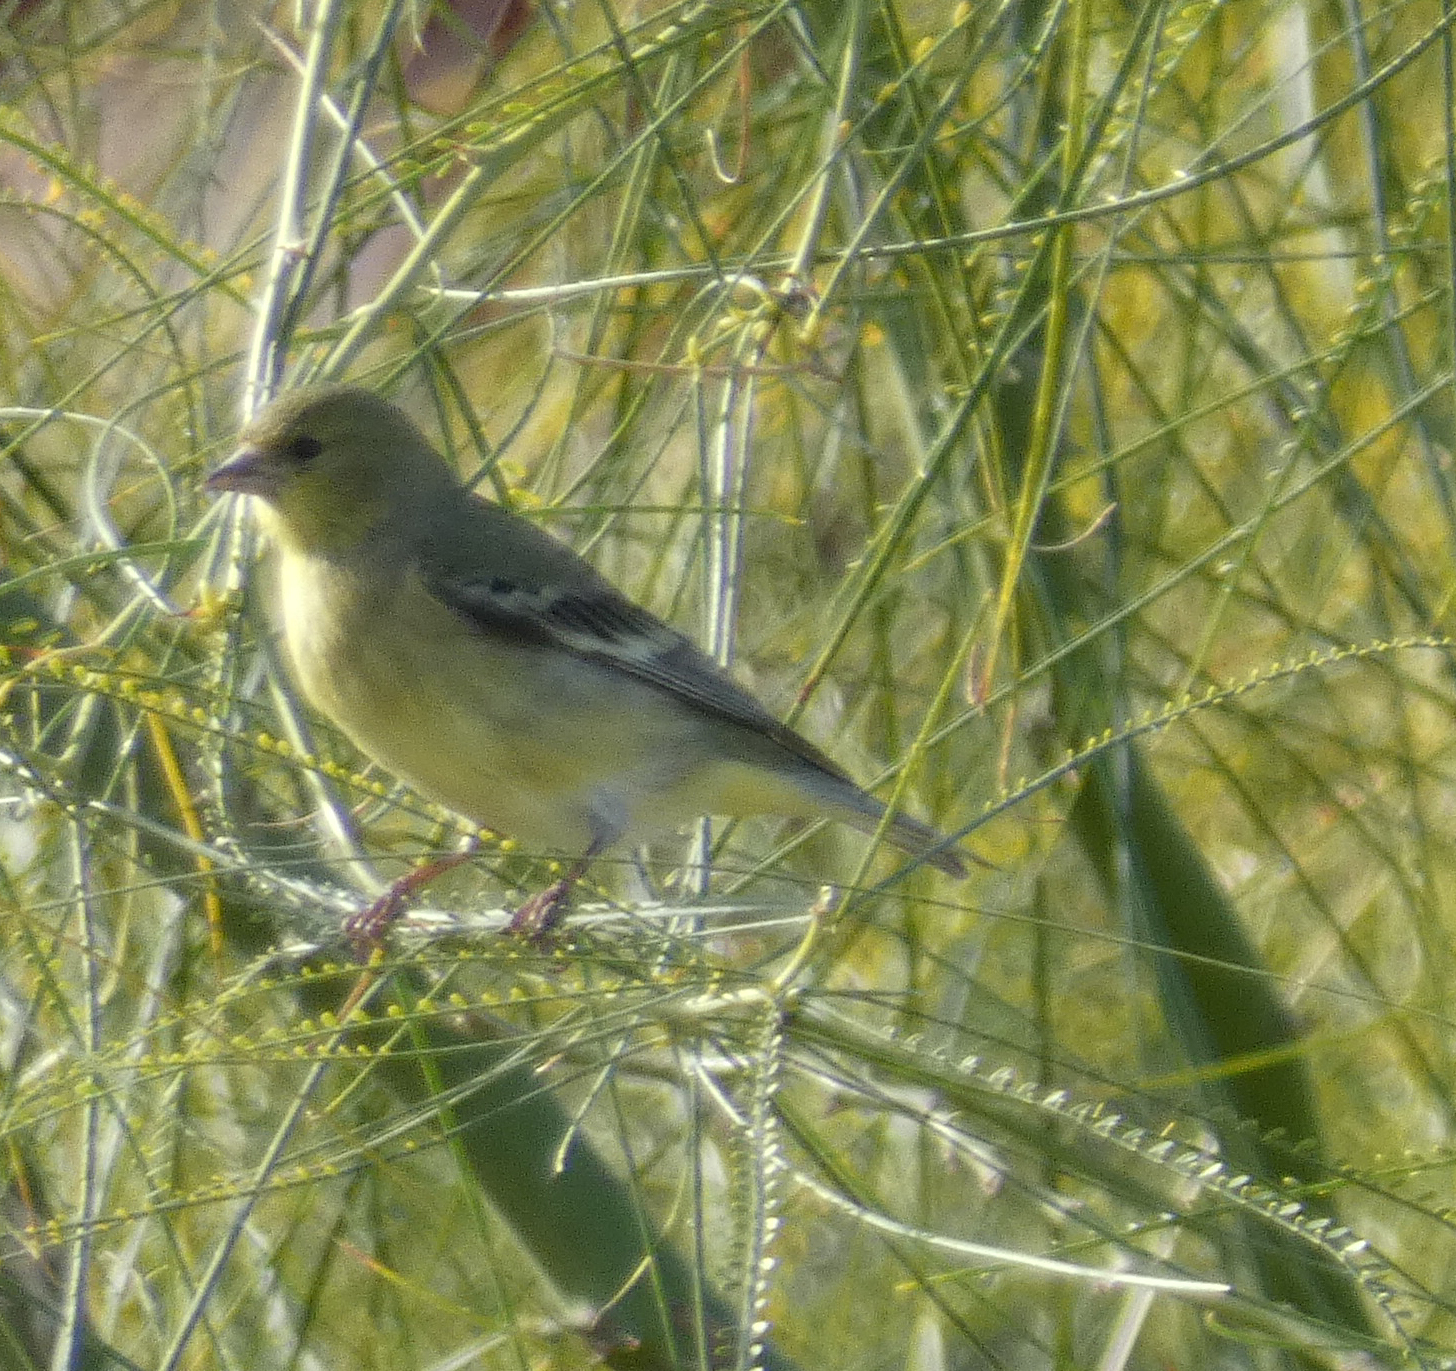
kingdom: Animalia
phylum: Chordata
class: Aves
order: Passeriformes
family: Fringillidae
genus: Spinus
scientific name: Spinus psaltria
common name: Lesser goldfinch
